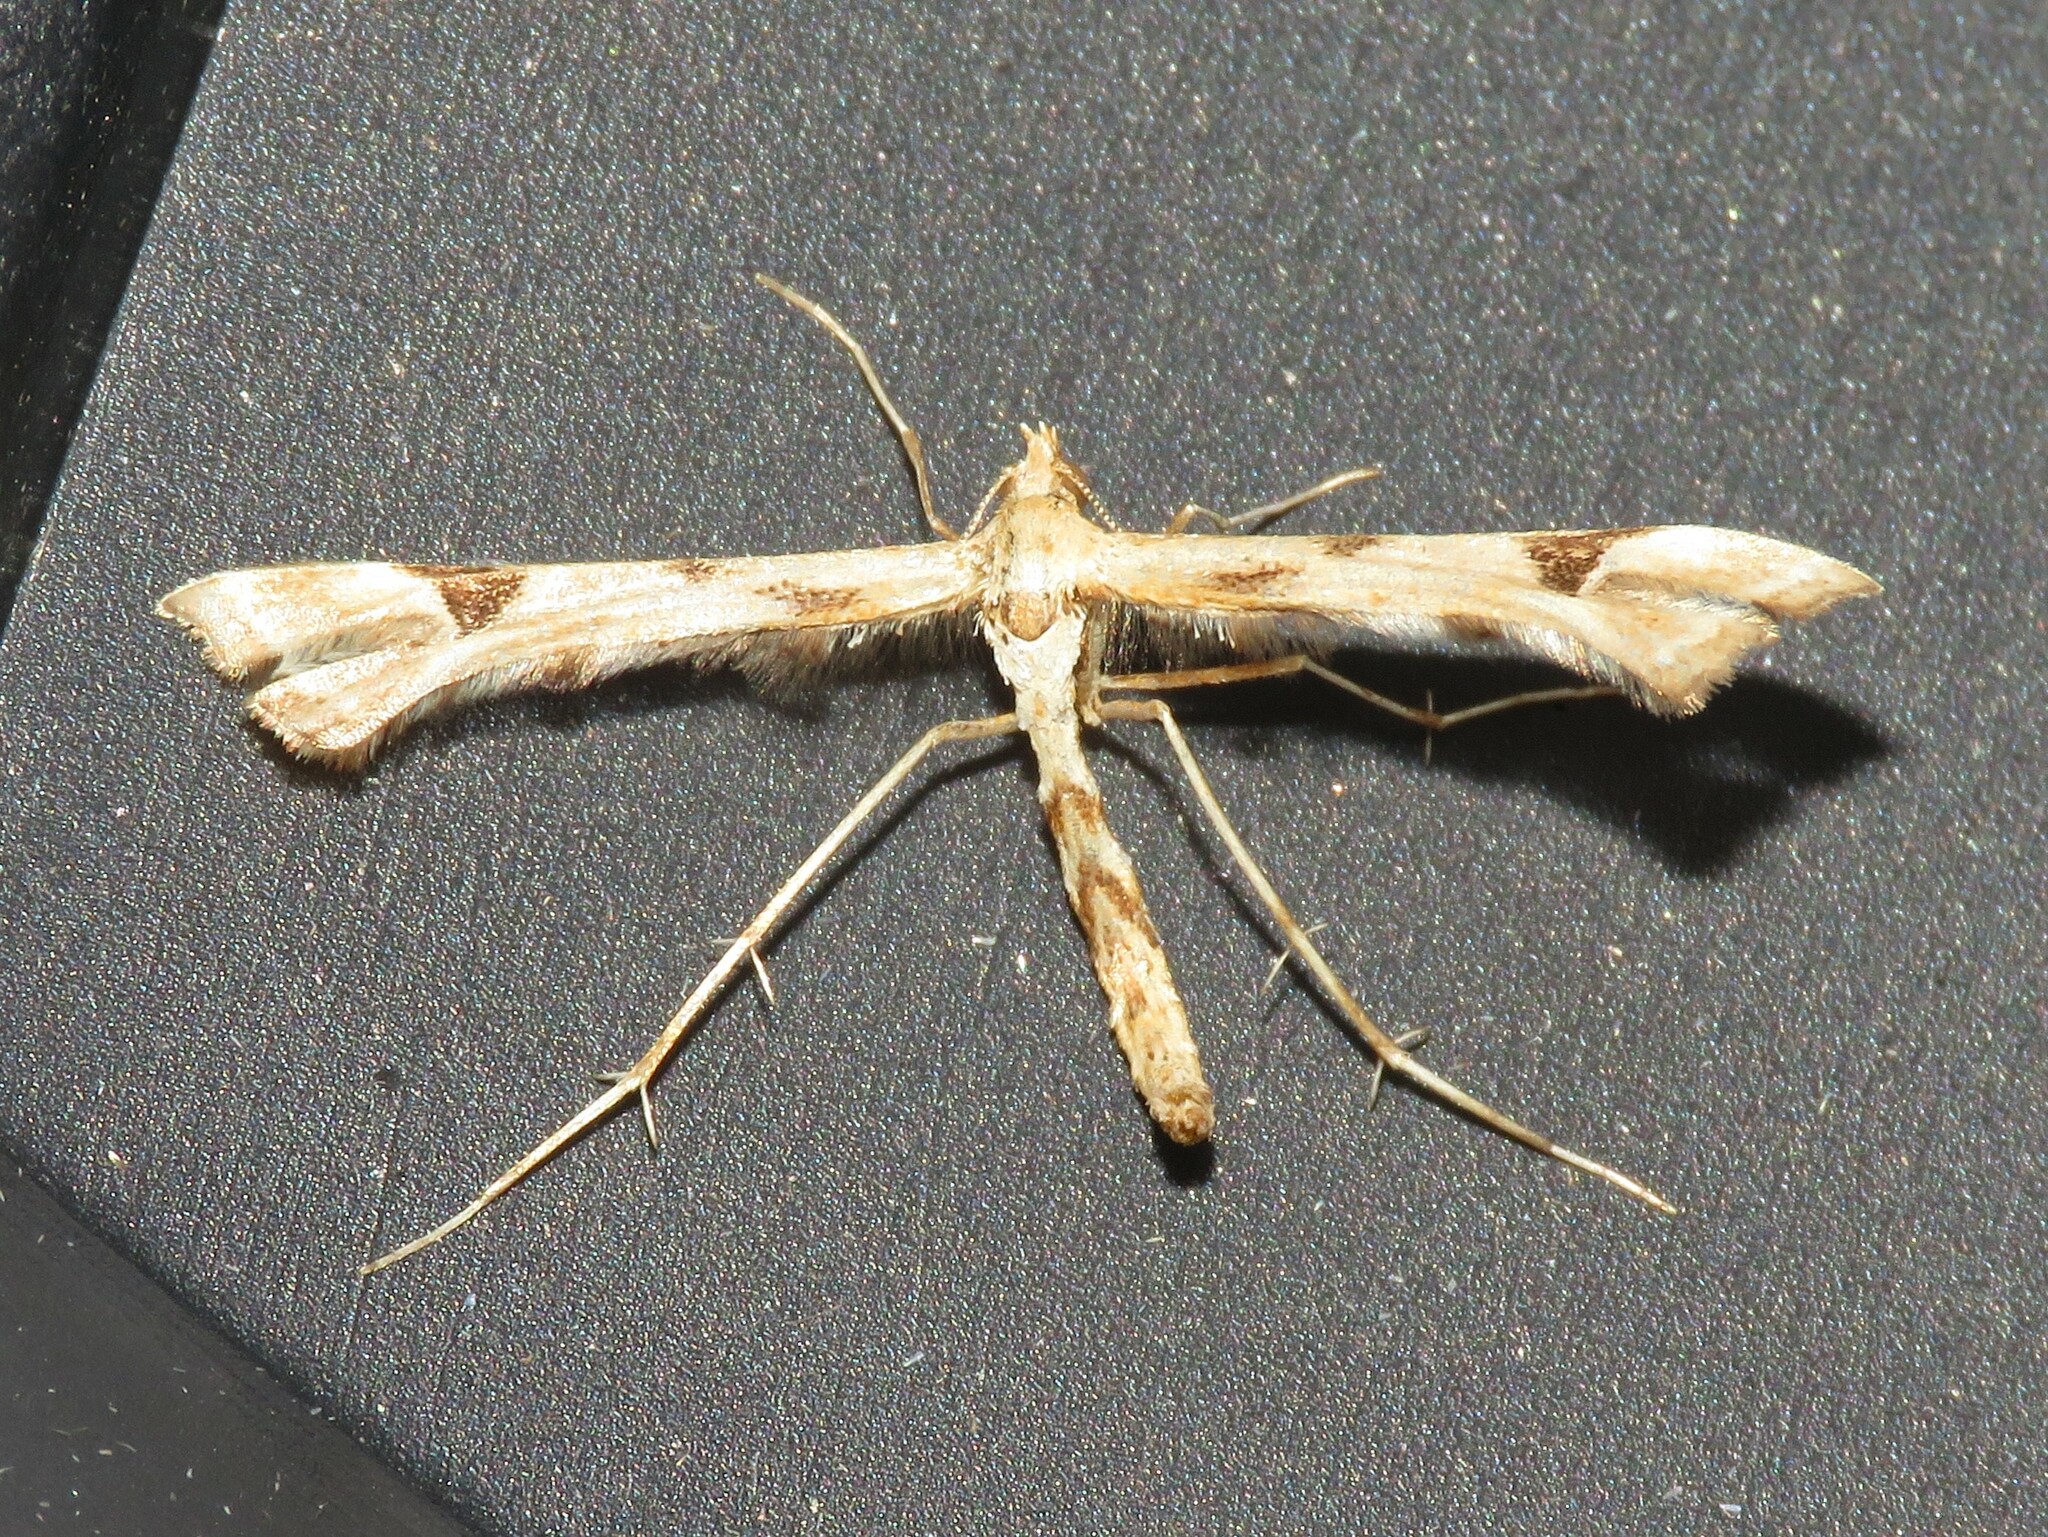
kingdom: Animalia
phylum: Arthropoda
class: Insecta
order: Lepidoptera
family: Pterophoridae
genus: Platyptilia
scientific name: Platyptilia carduidactylus
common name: Artichoke plume moth
